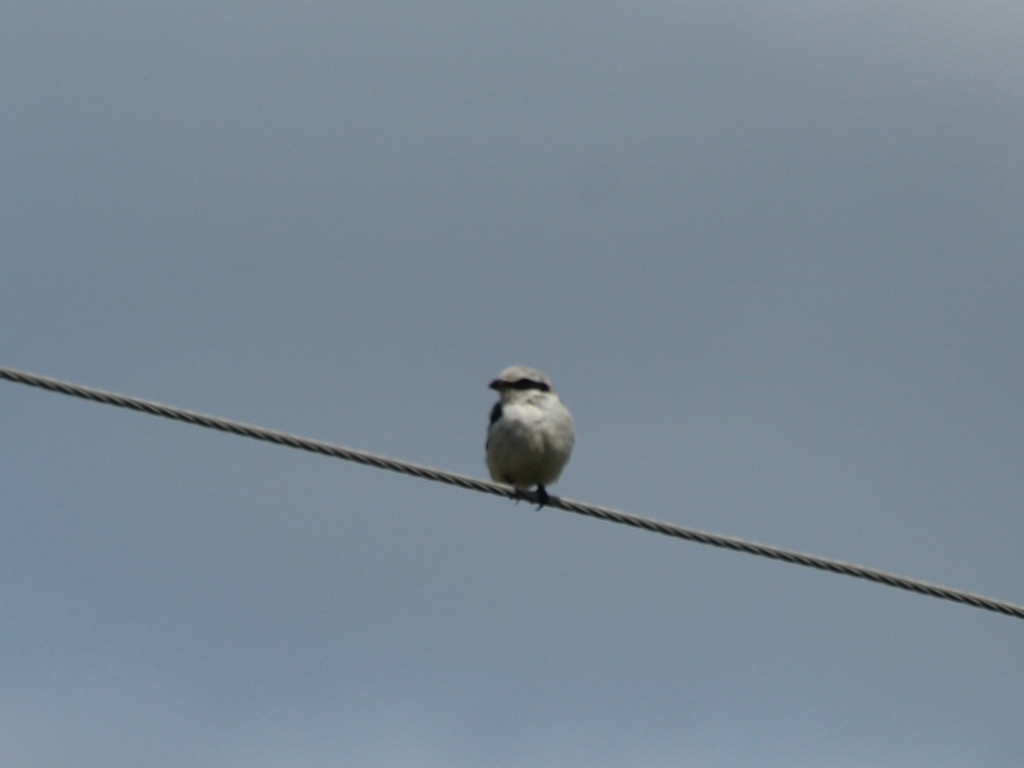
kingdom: Animalia
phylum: Chordata
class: Aves
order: Passeriformes
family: Laniidae
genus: Lanius
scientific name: Lanius excubitor
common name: Great grey shrike
